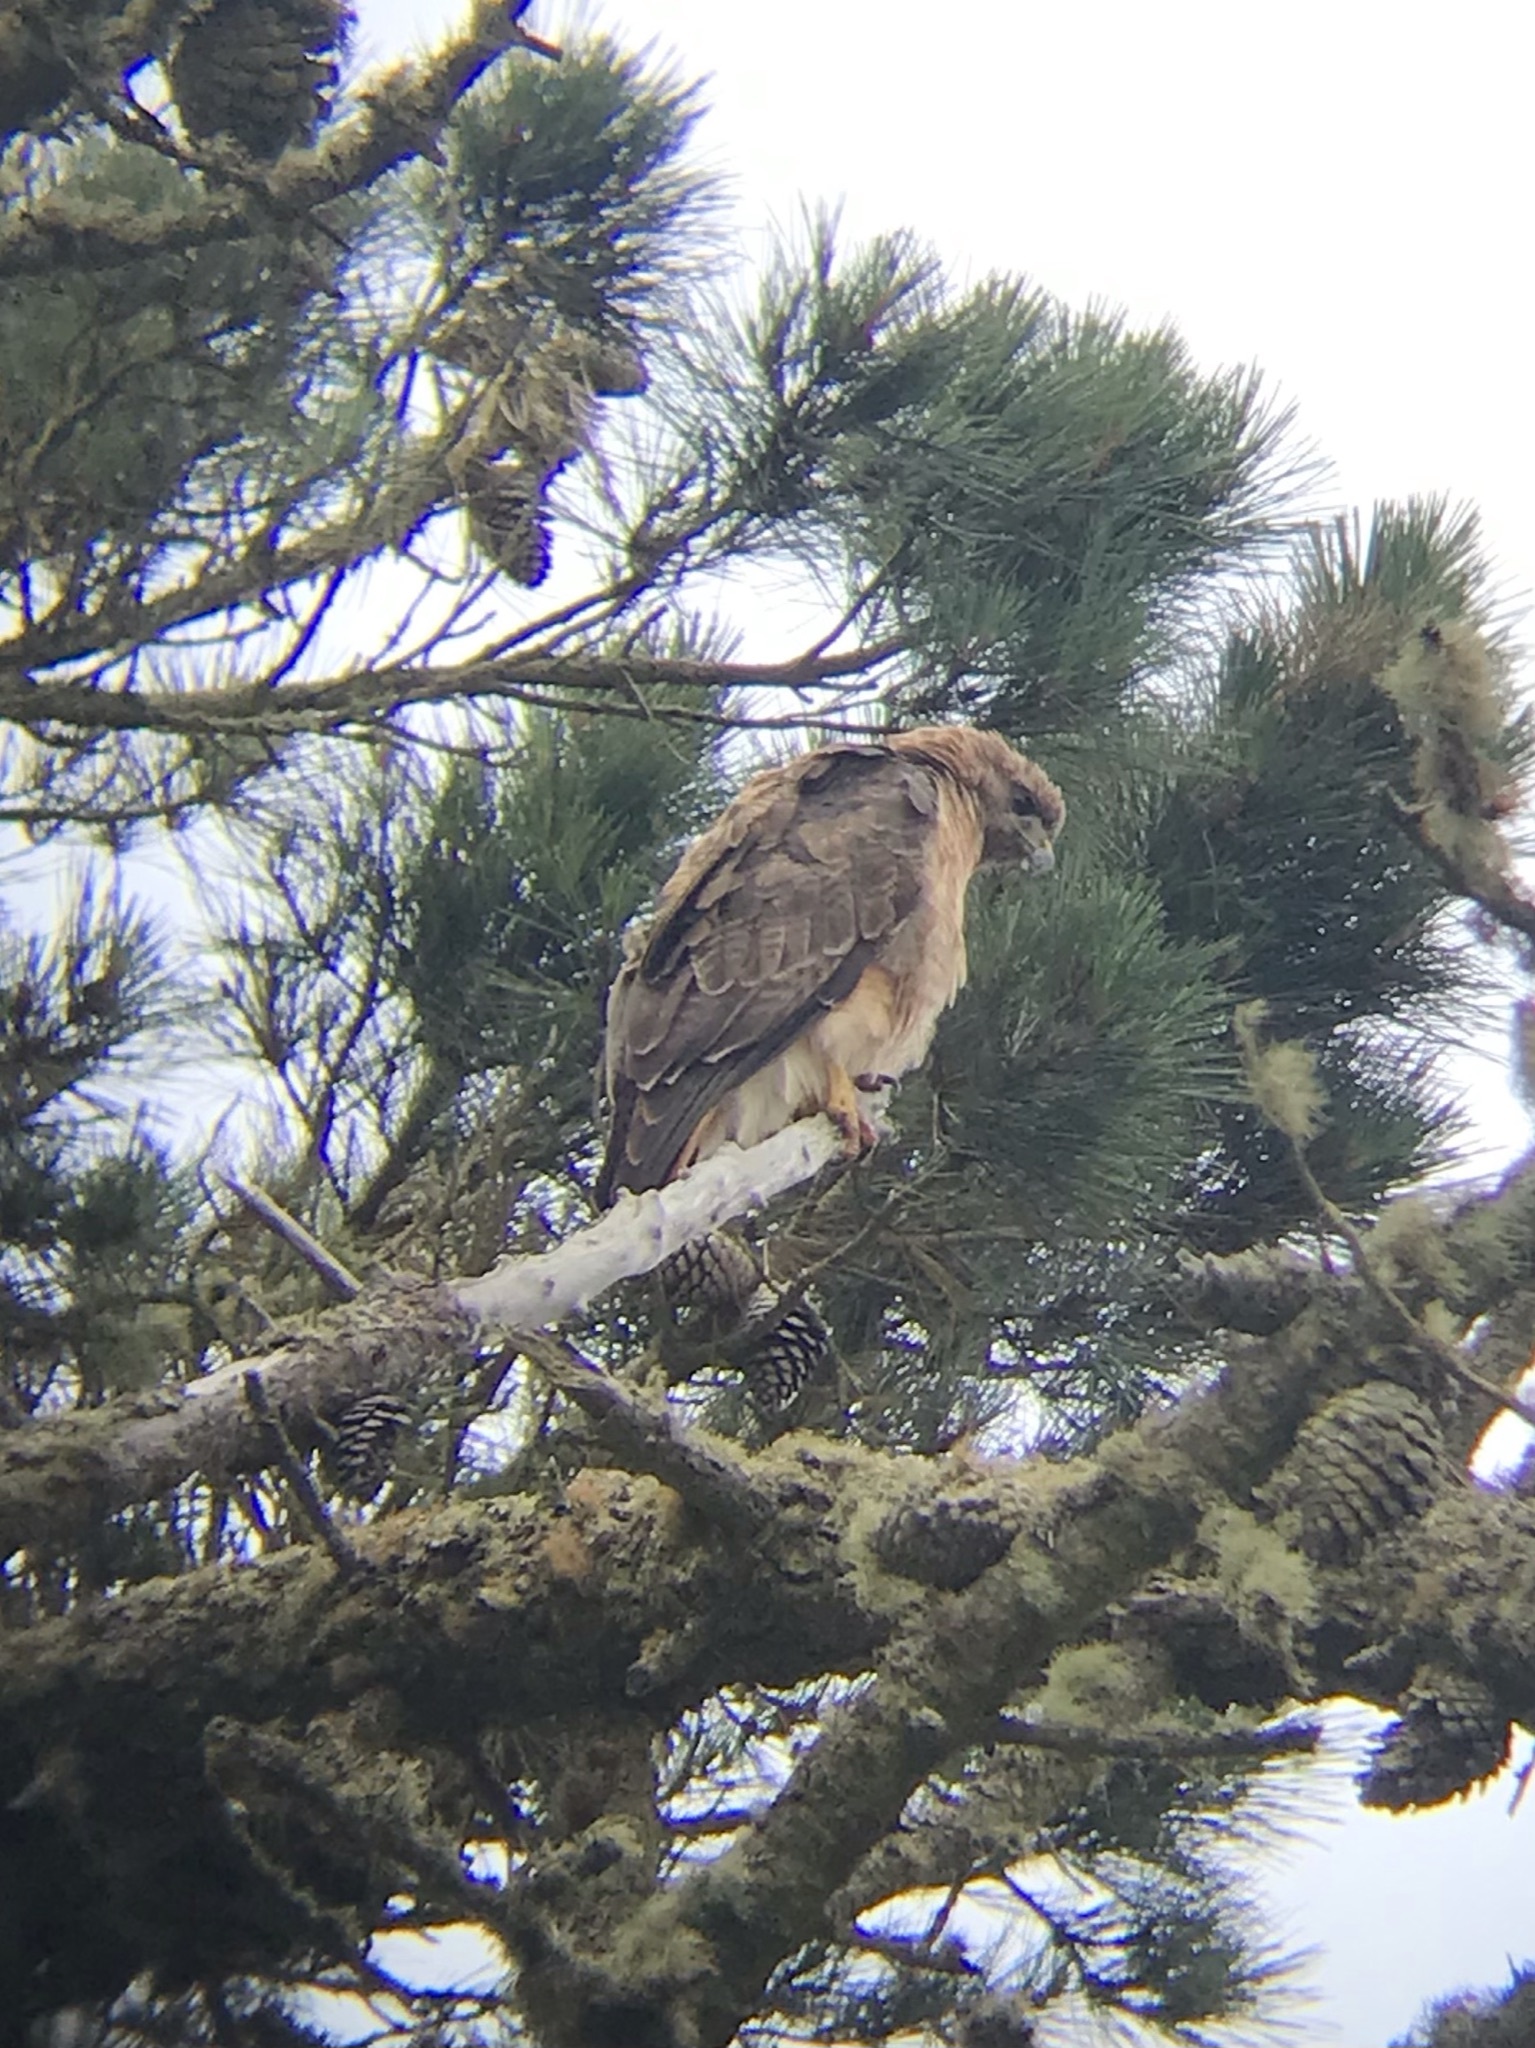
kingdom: Animalia
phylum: Chordata
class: Aves
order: Accipitriformes
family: Accipitridae
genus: Buteo
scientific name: Buteo jamaicensis
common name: Red-tailed hawk
